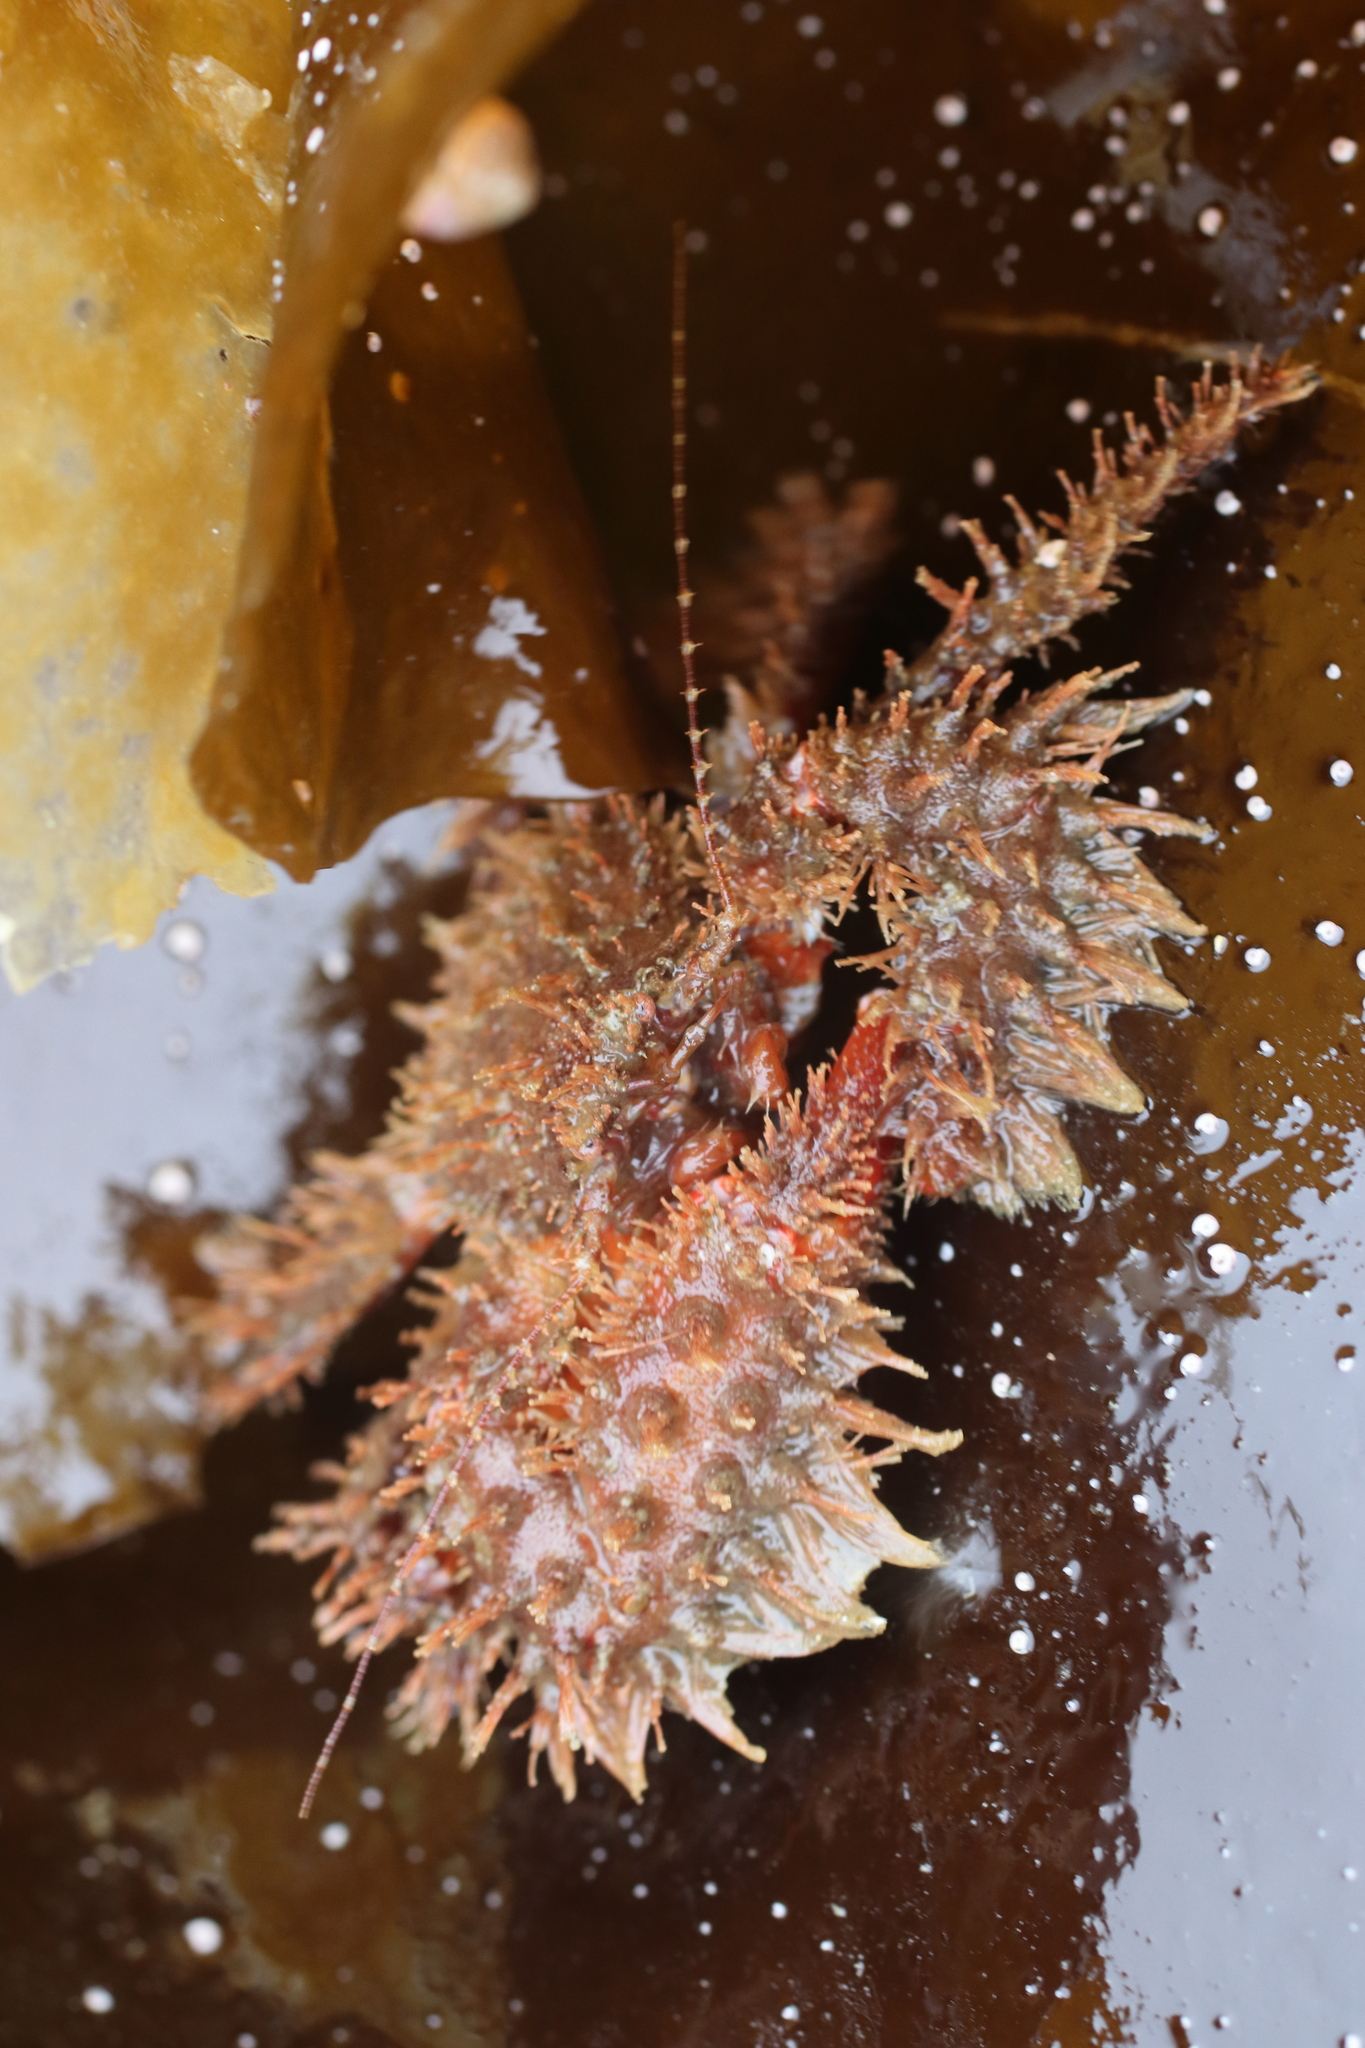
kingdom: Animalia
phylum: Arthropoda
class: Malacostraca
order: Decapoda
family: Hapalogastridae
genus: Hapalogaster
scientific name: Hapalogaster mertensii
